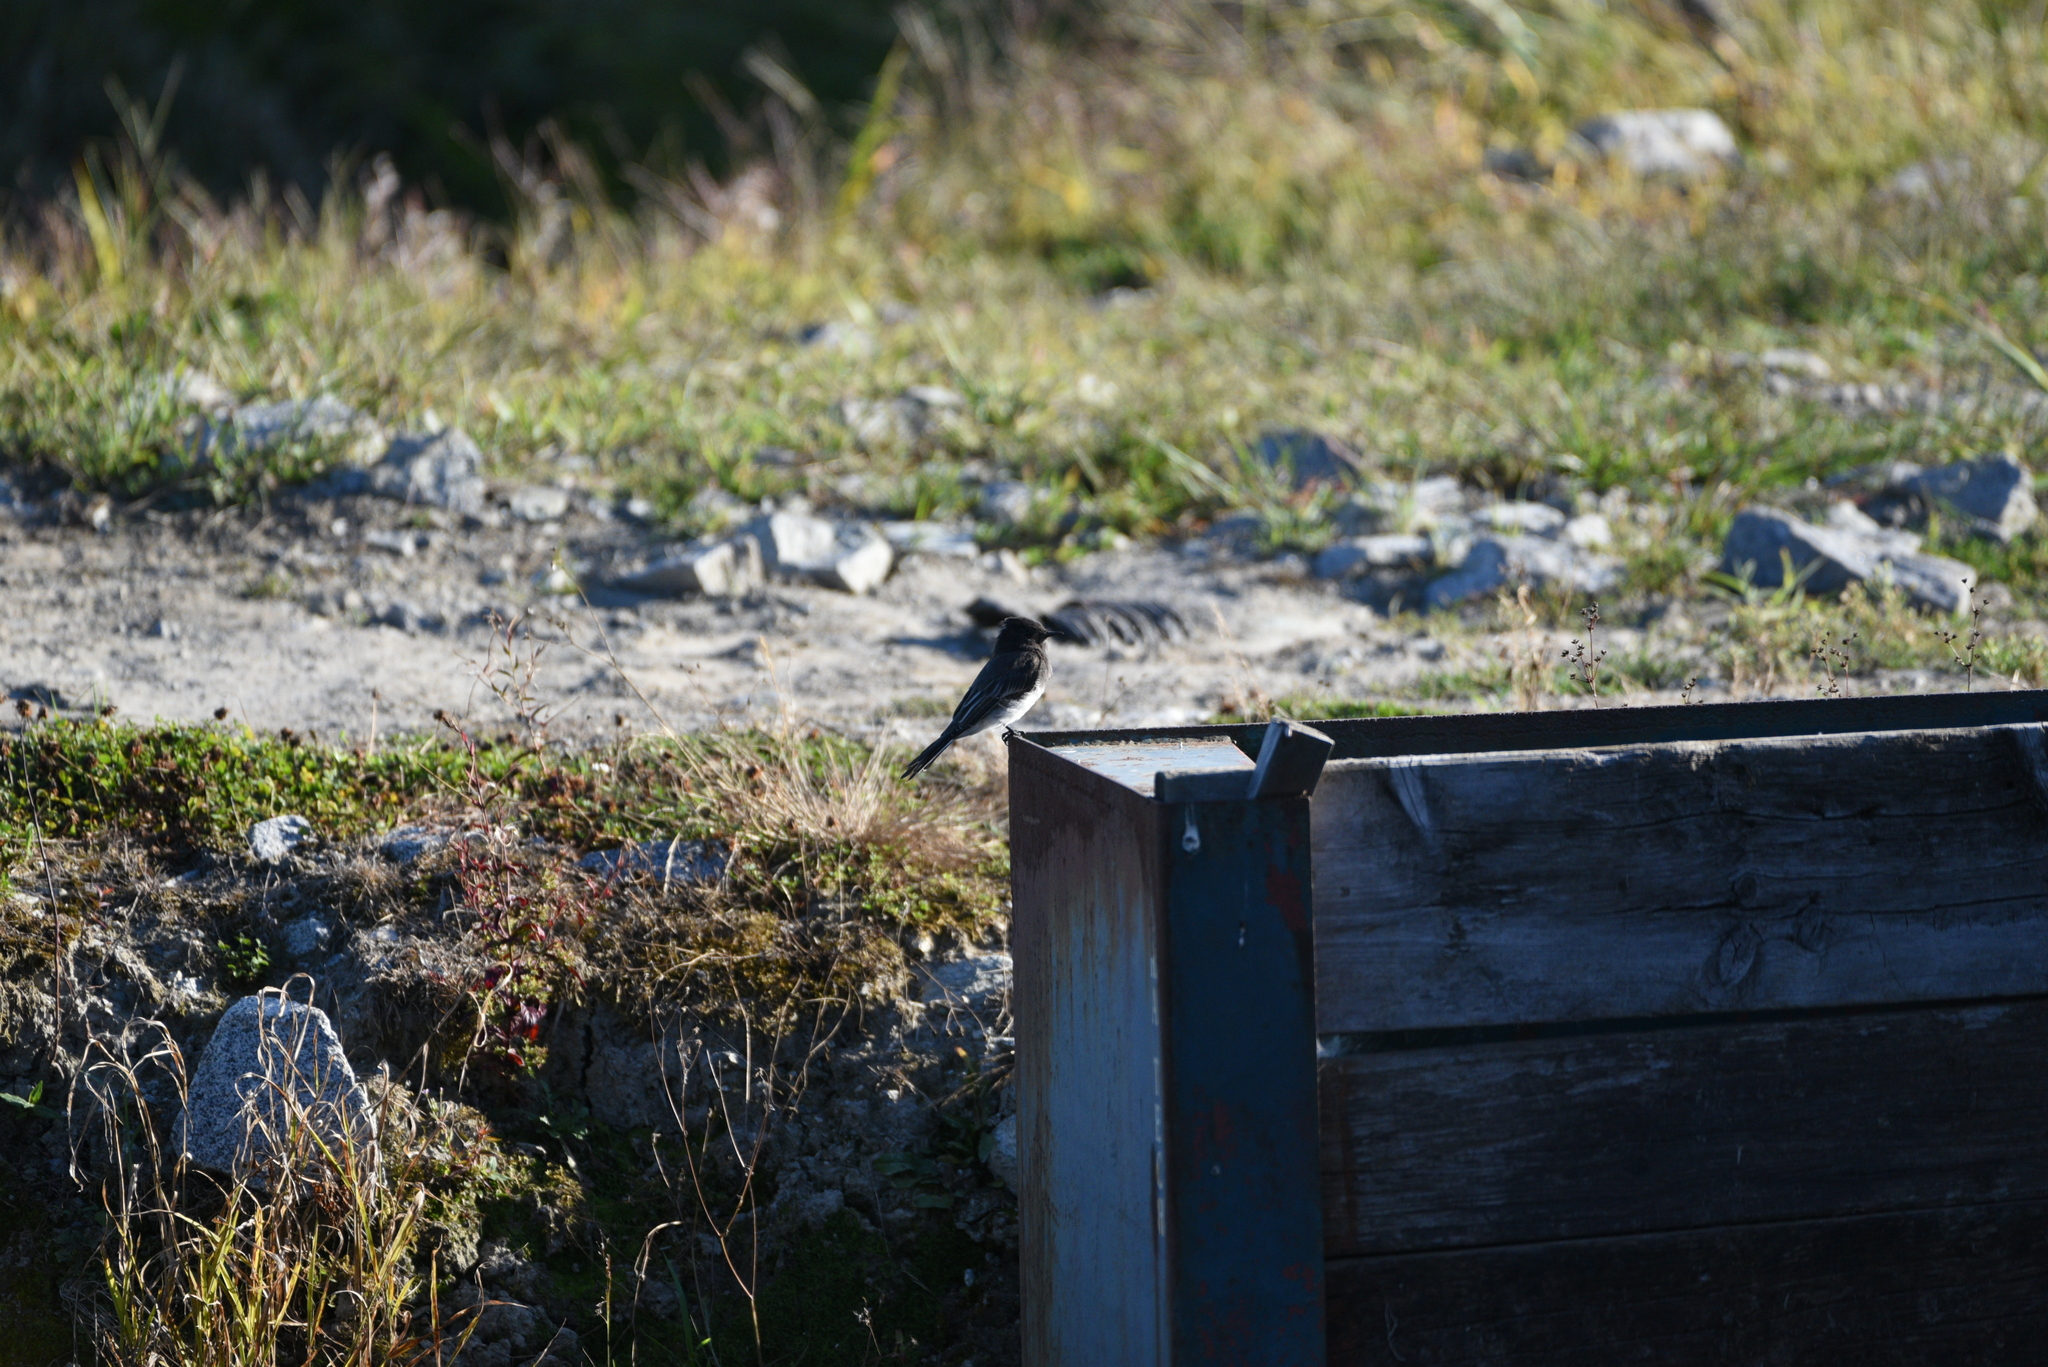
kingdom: Animalia
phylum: Chordata
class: Aves
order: Passeriformes
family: Tyrannidae
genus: Sayornis
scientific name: Sayornis nigricans
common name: Black phoebe
